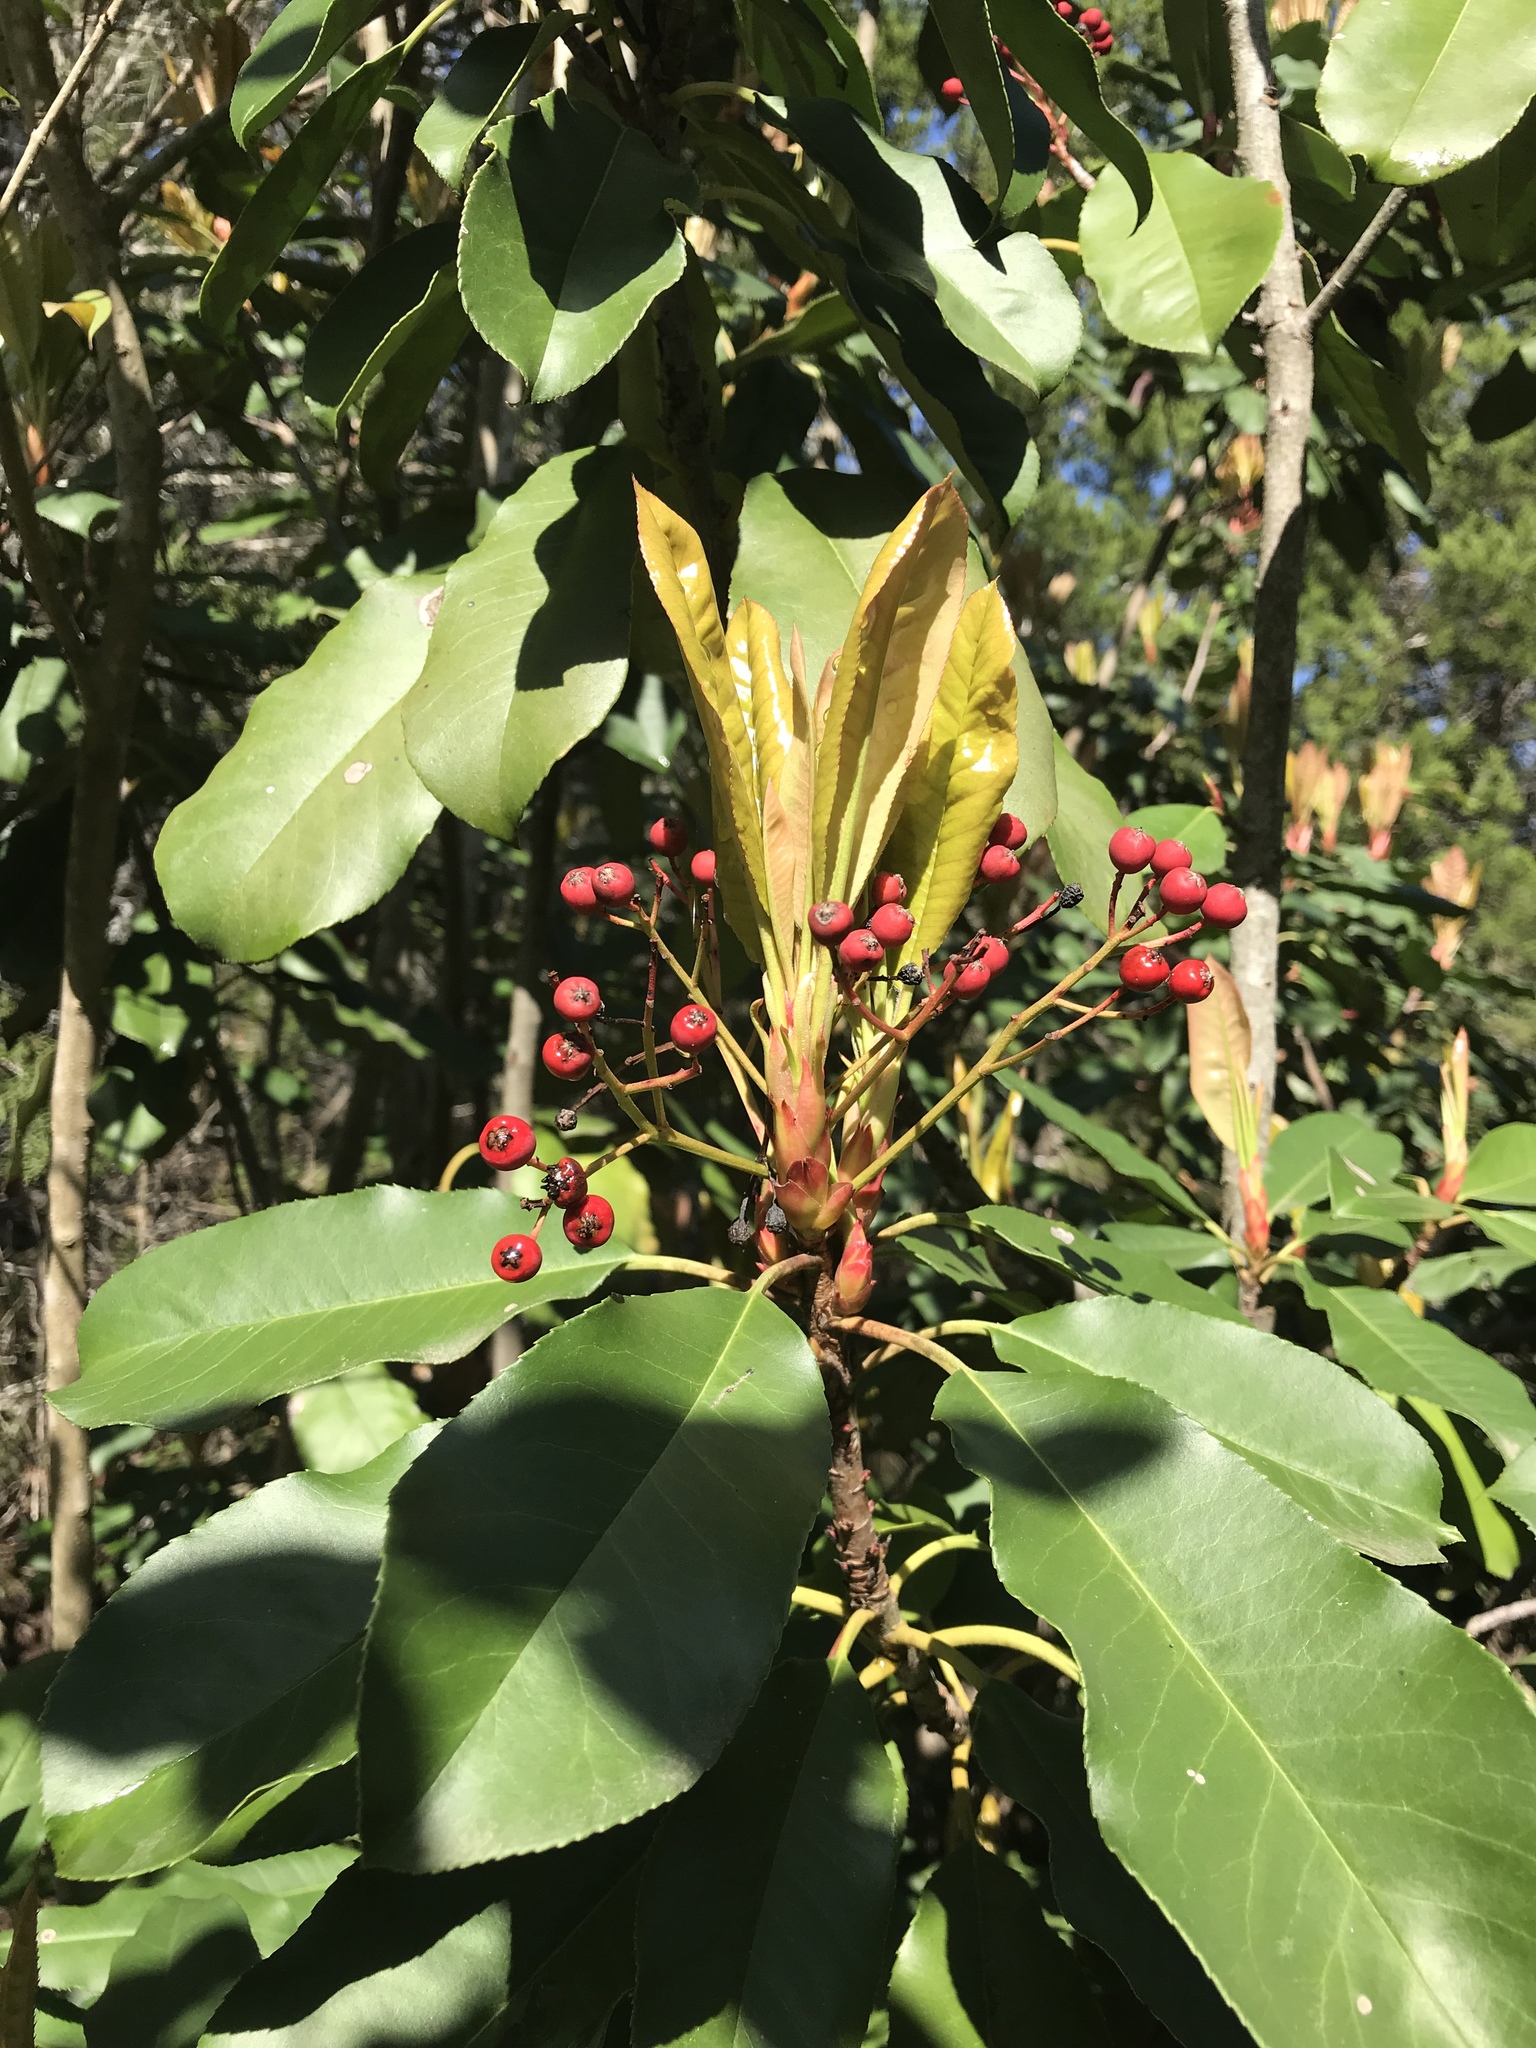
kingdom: Plantae
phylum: Tracheophyta
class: Magnoliopsida
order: Rosales
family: Rosaceae
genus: Photinia
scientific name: Photinia serratifolia
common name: Taiwanese photinia
